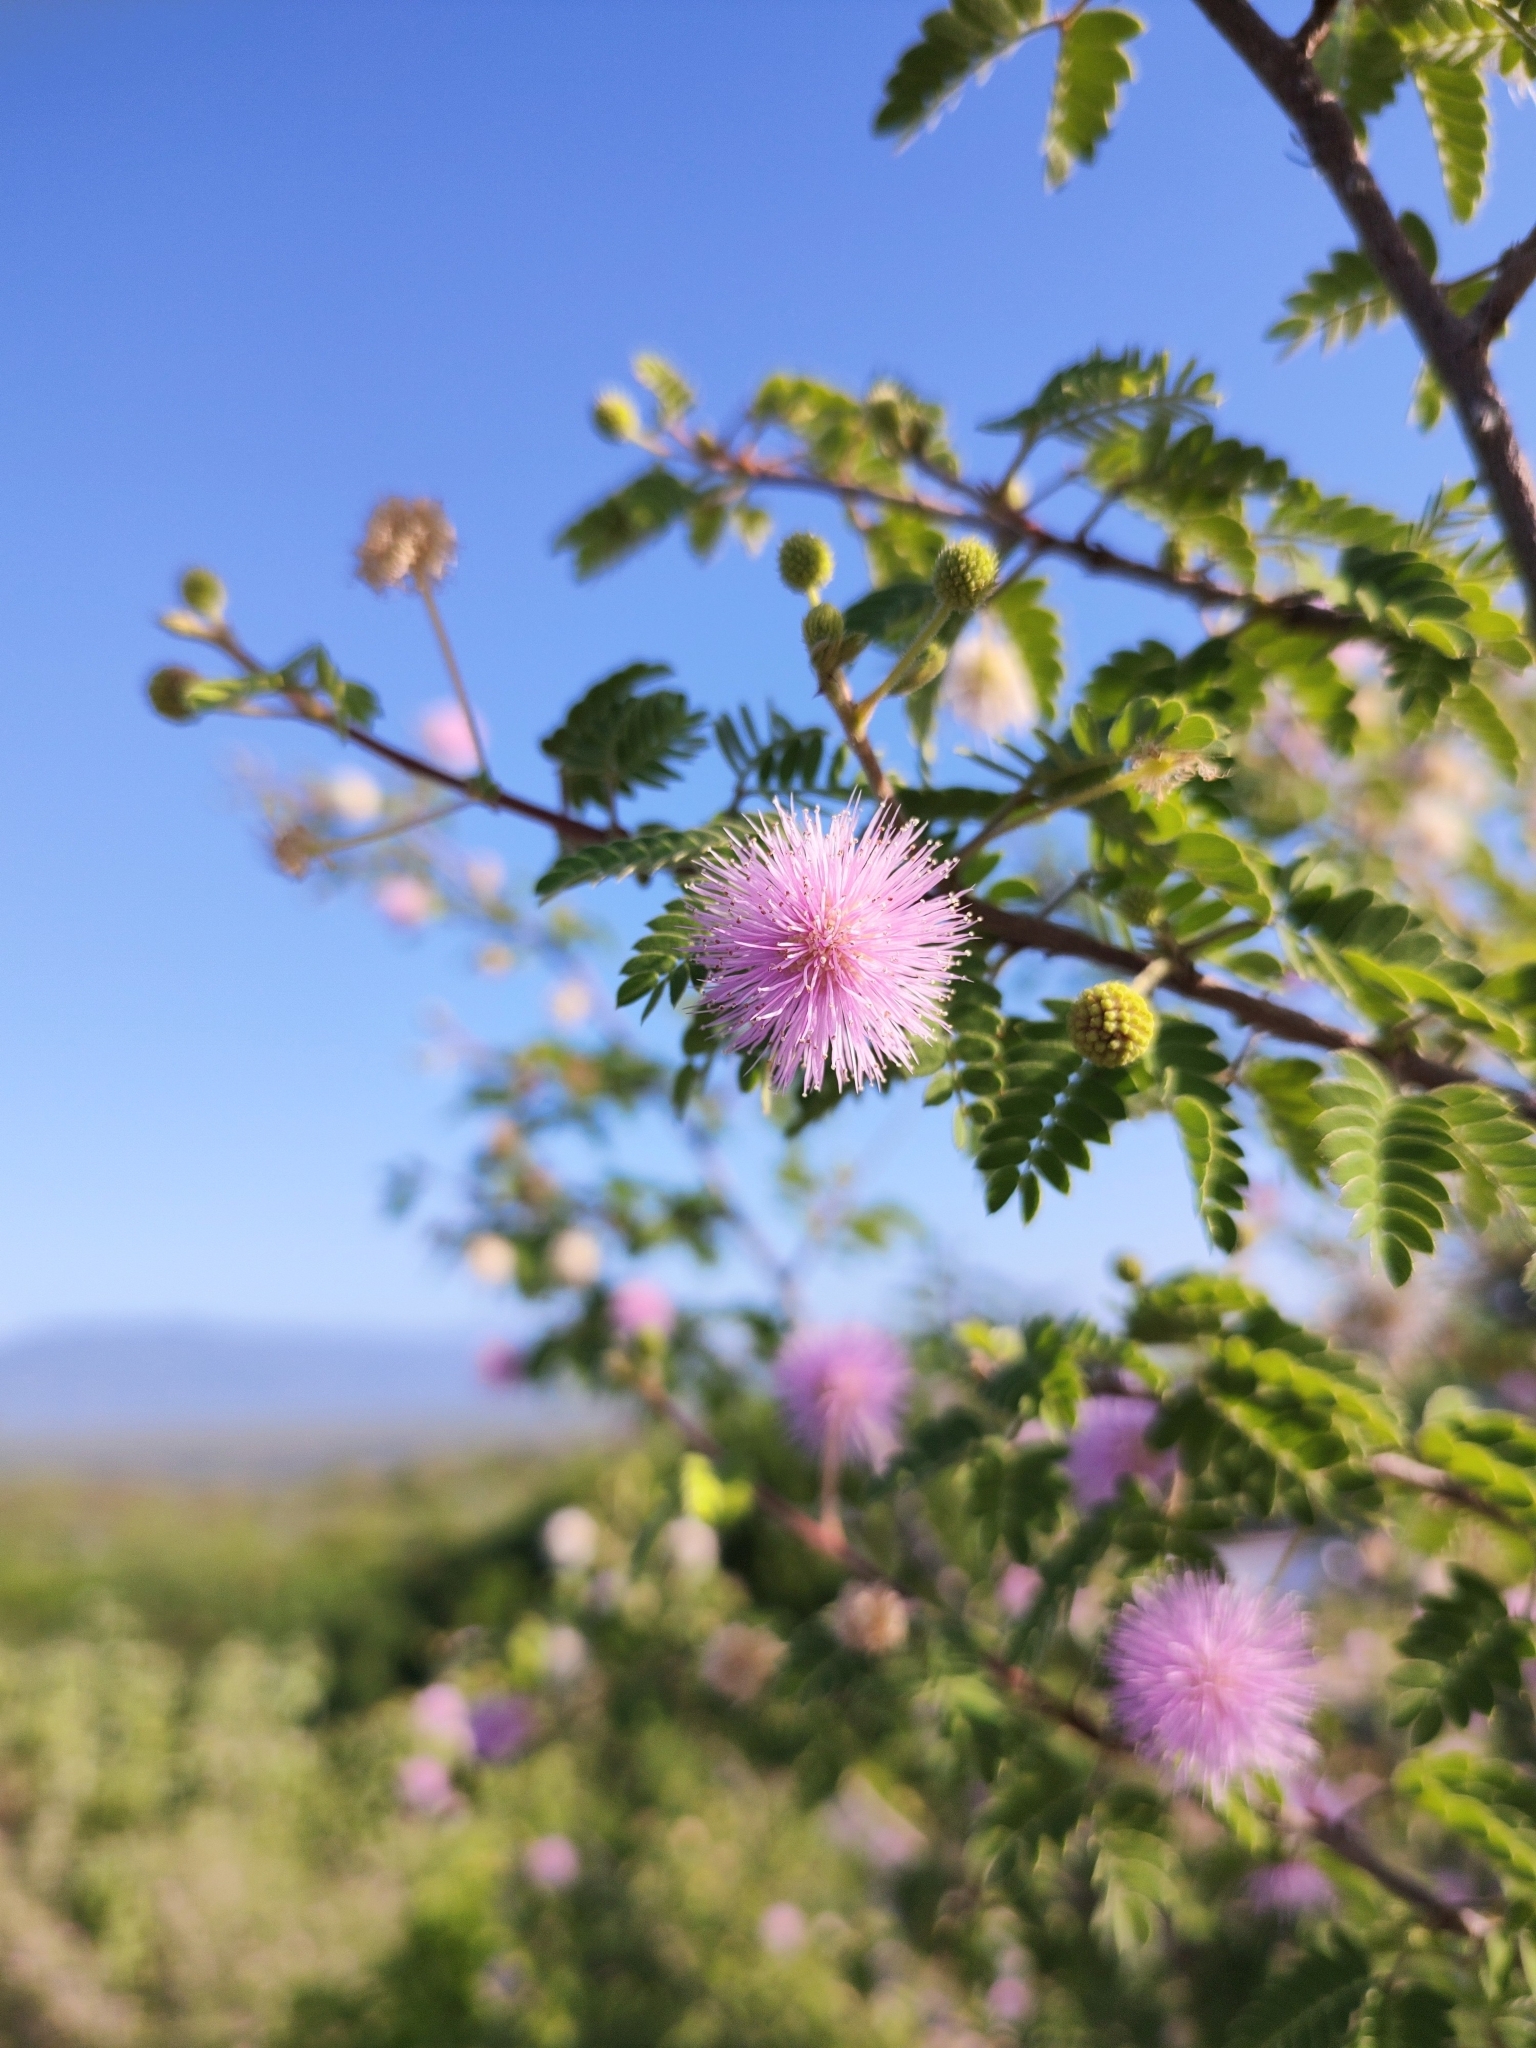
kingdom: Plantae
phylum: Tracheophyta
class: Magnoliopsida
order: Fabales
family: Fabaceae
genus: Mimosa
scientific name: Mimosa tricephala
